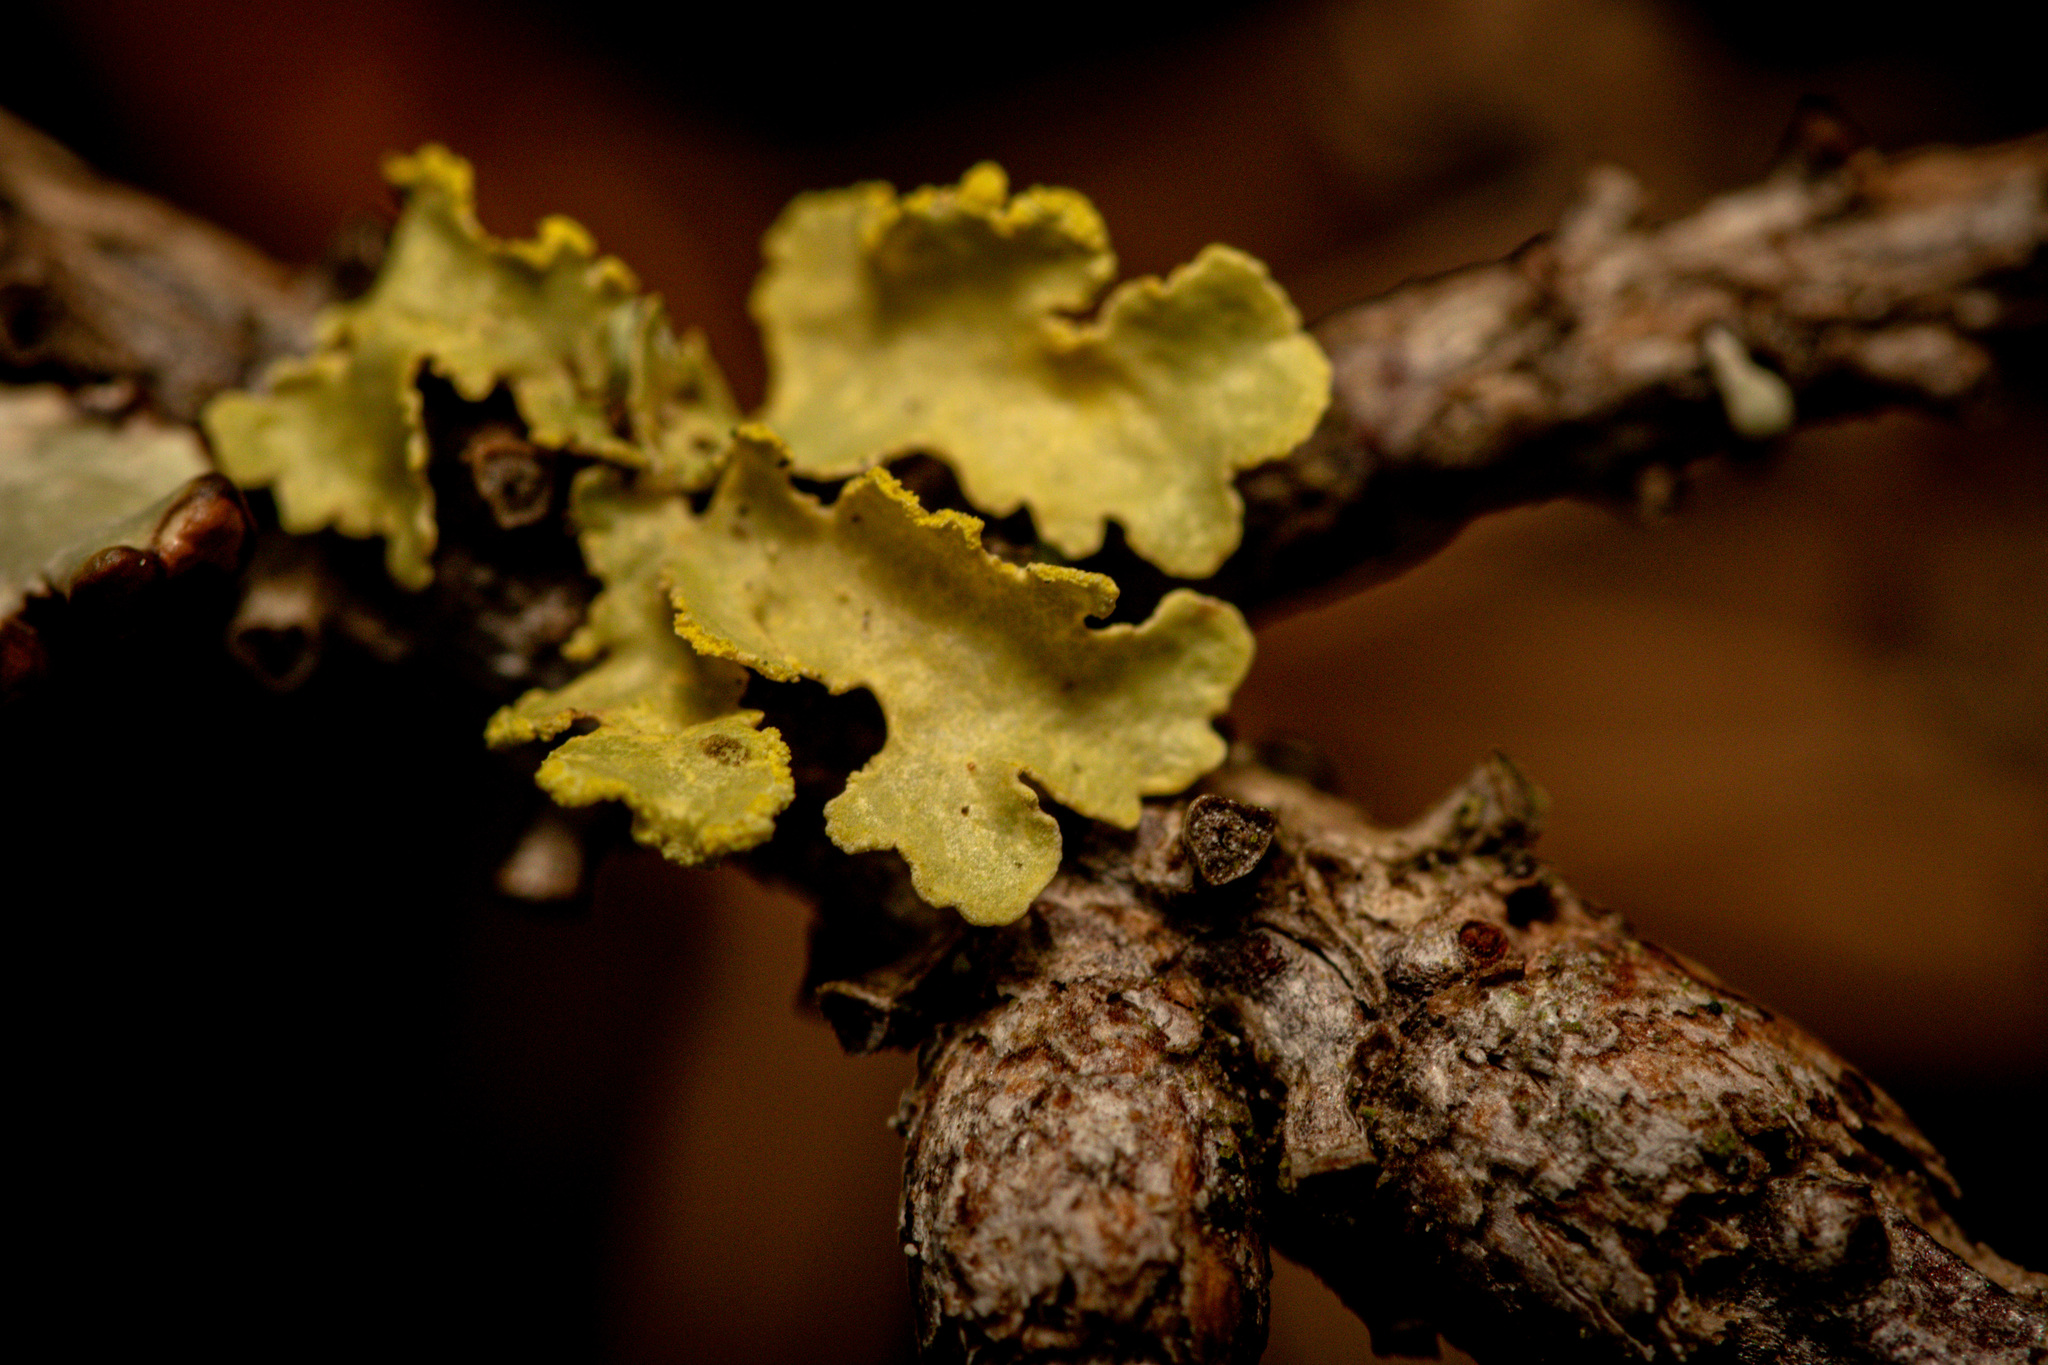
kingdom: Fungi
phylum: Ascomycota
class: Lecanoromycetes
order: Lecanorales
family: Parmeliaceae
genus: Vulpicida
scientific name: Vulpicida pinastri
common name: Powdered sunshine lichen
